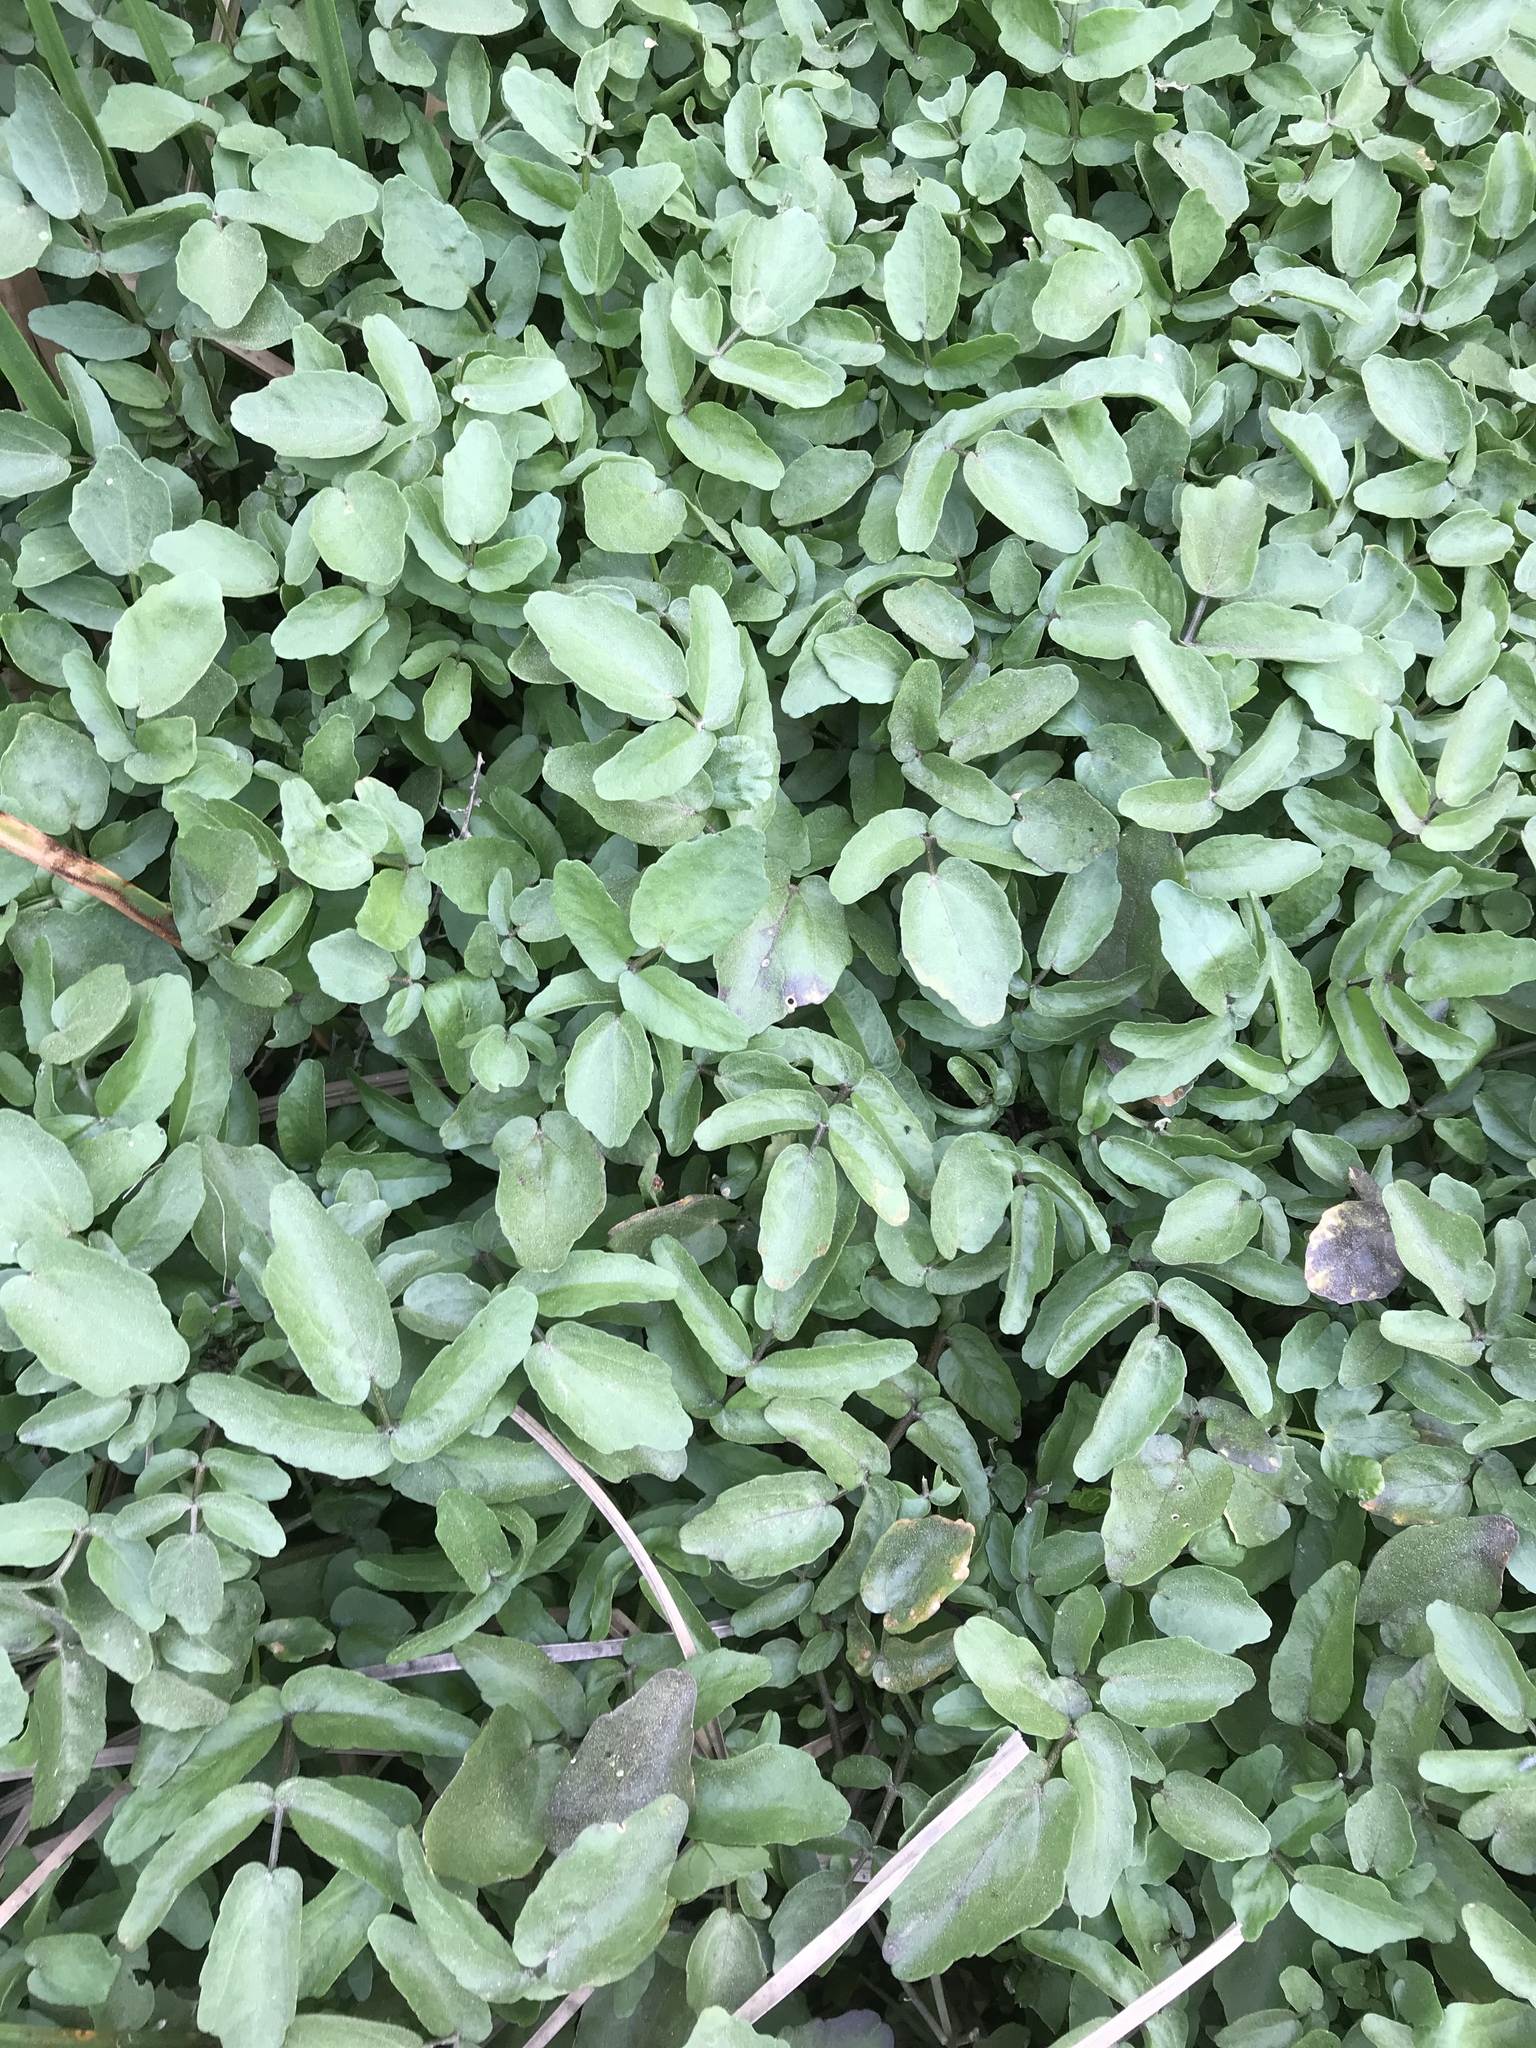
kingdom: Plantae
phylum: Tracheophyta
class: Magnoliopsida
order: Brassicales
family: Brassicaceae
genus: Nasturtium
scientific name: Nasturtium officinale
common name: Watercress
